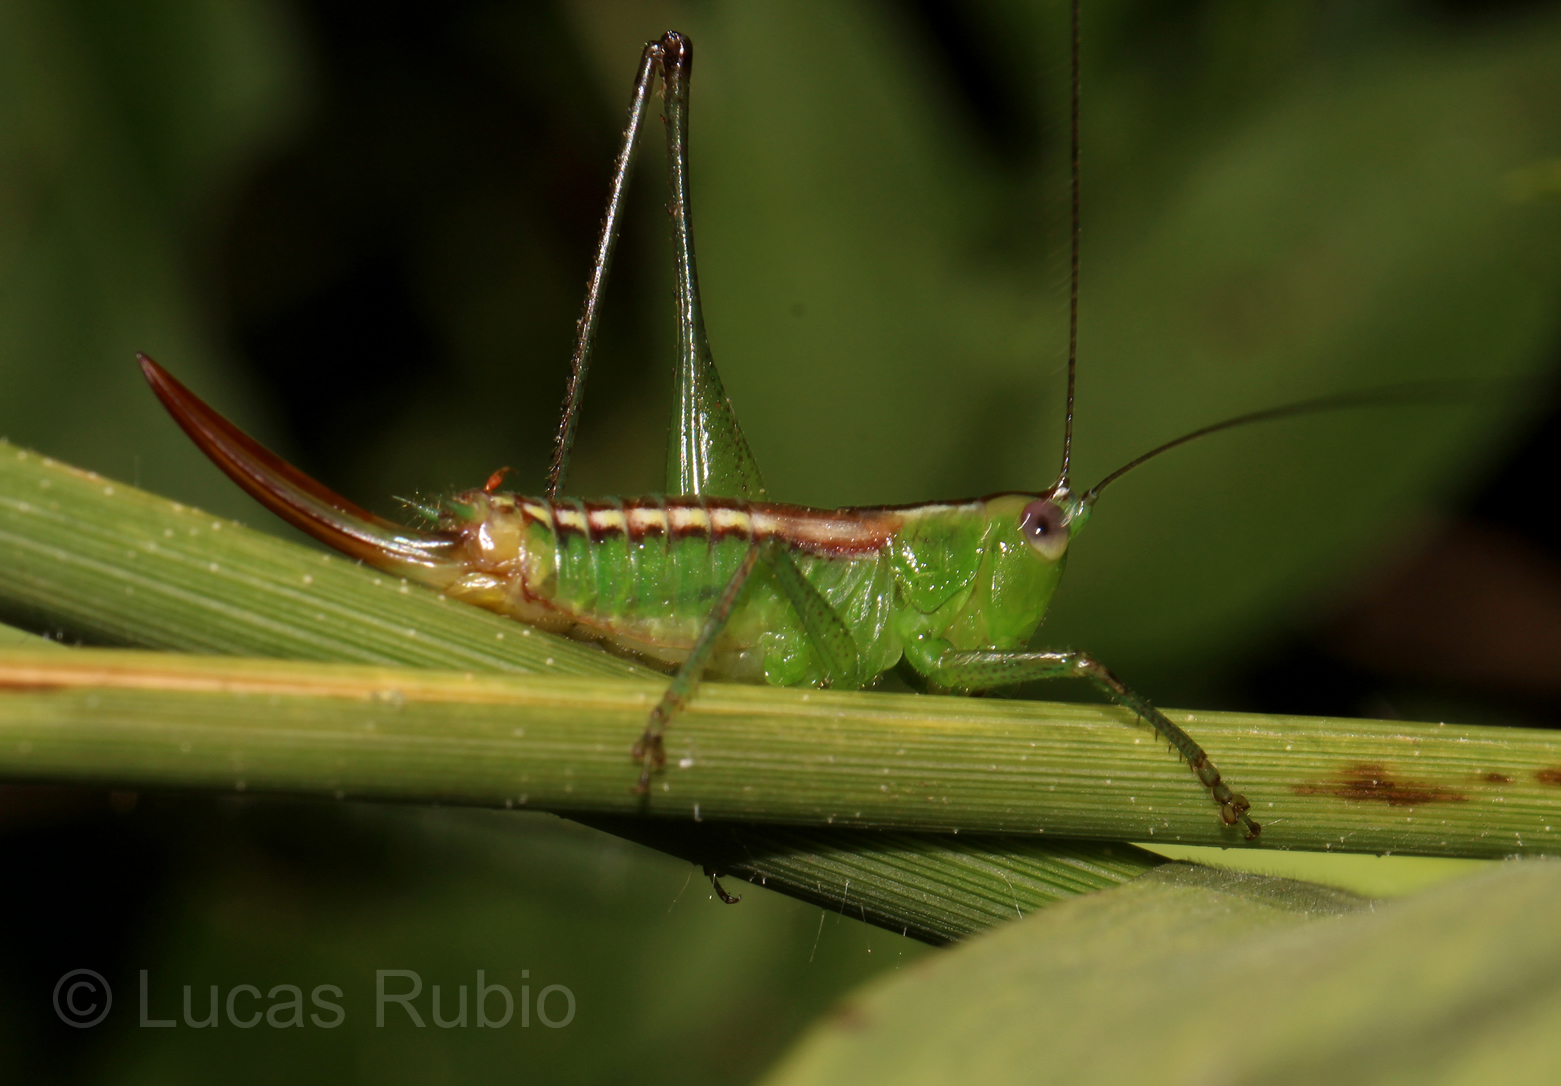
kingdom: Animalia
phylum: Arthropoda
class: Insecta
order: Orthoptera
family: Tettigoniidae
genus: Conocephalus
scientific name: Conocephalus ochrotelus
